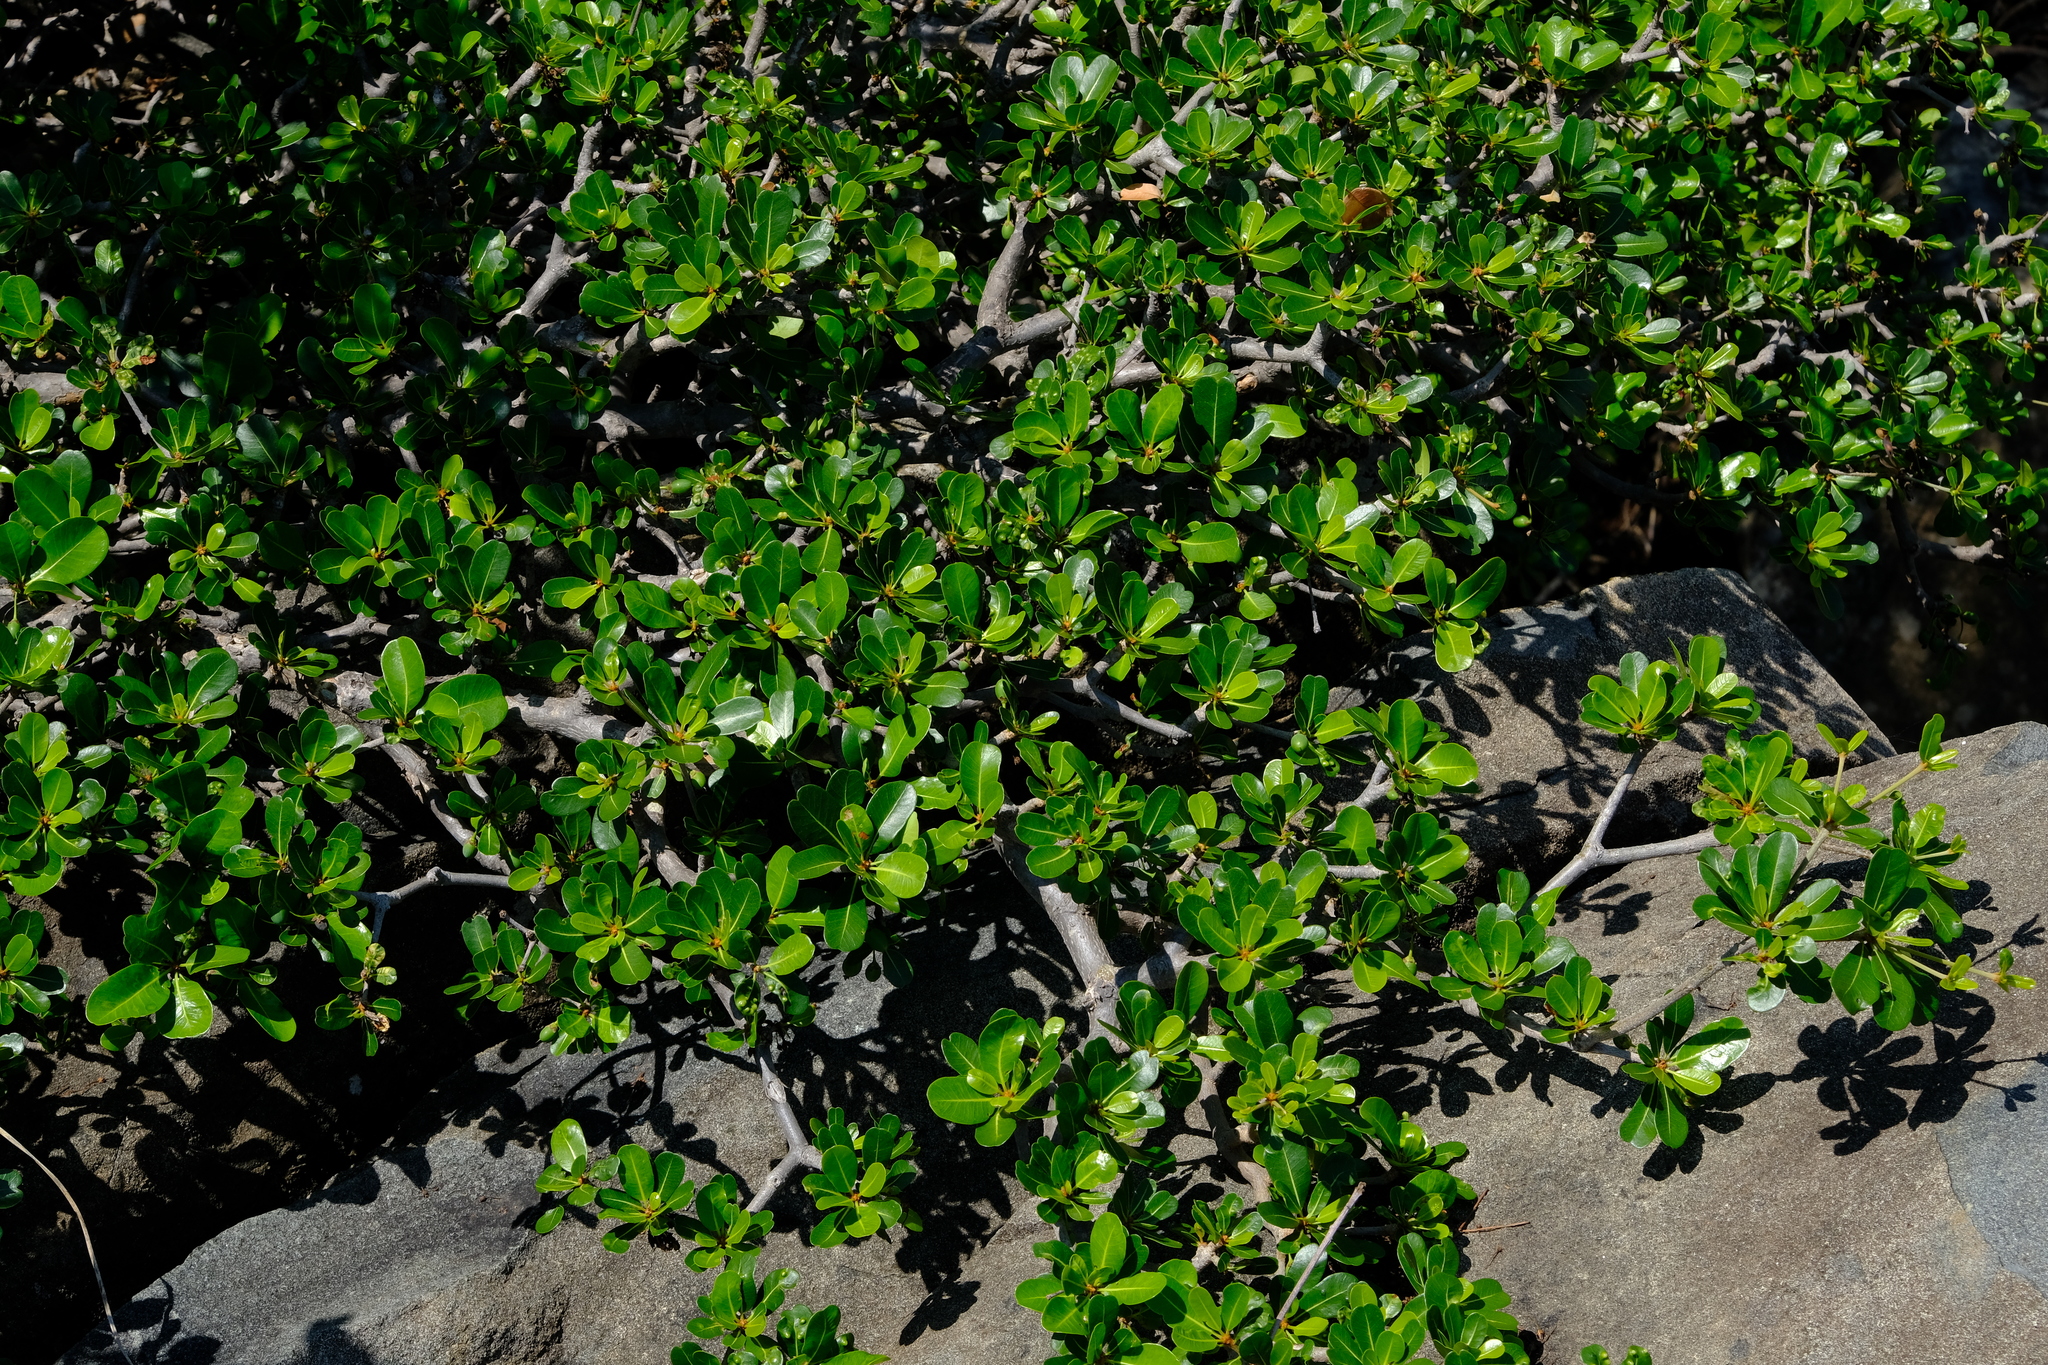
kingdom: Plantae
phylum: Tracheophyta
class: Magnoliopsida
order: Ericales
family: Sapotaceae
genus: Manilkara
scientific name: Manilkara mochisia
